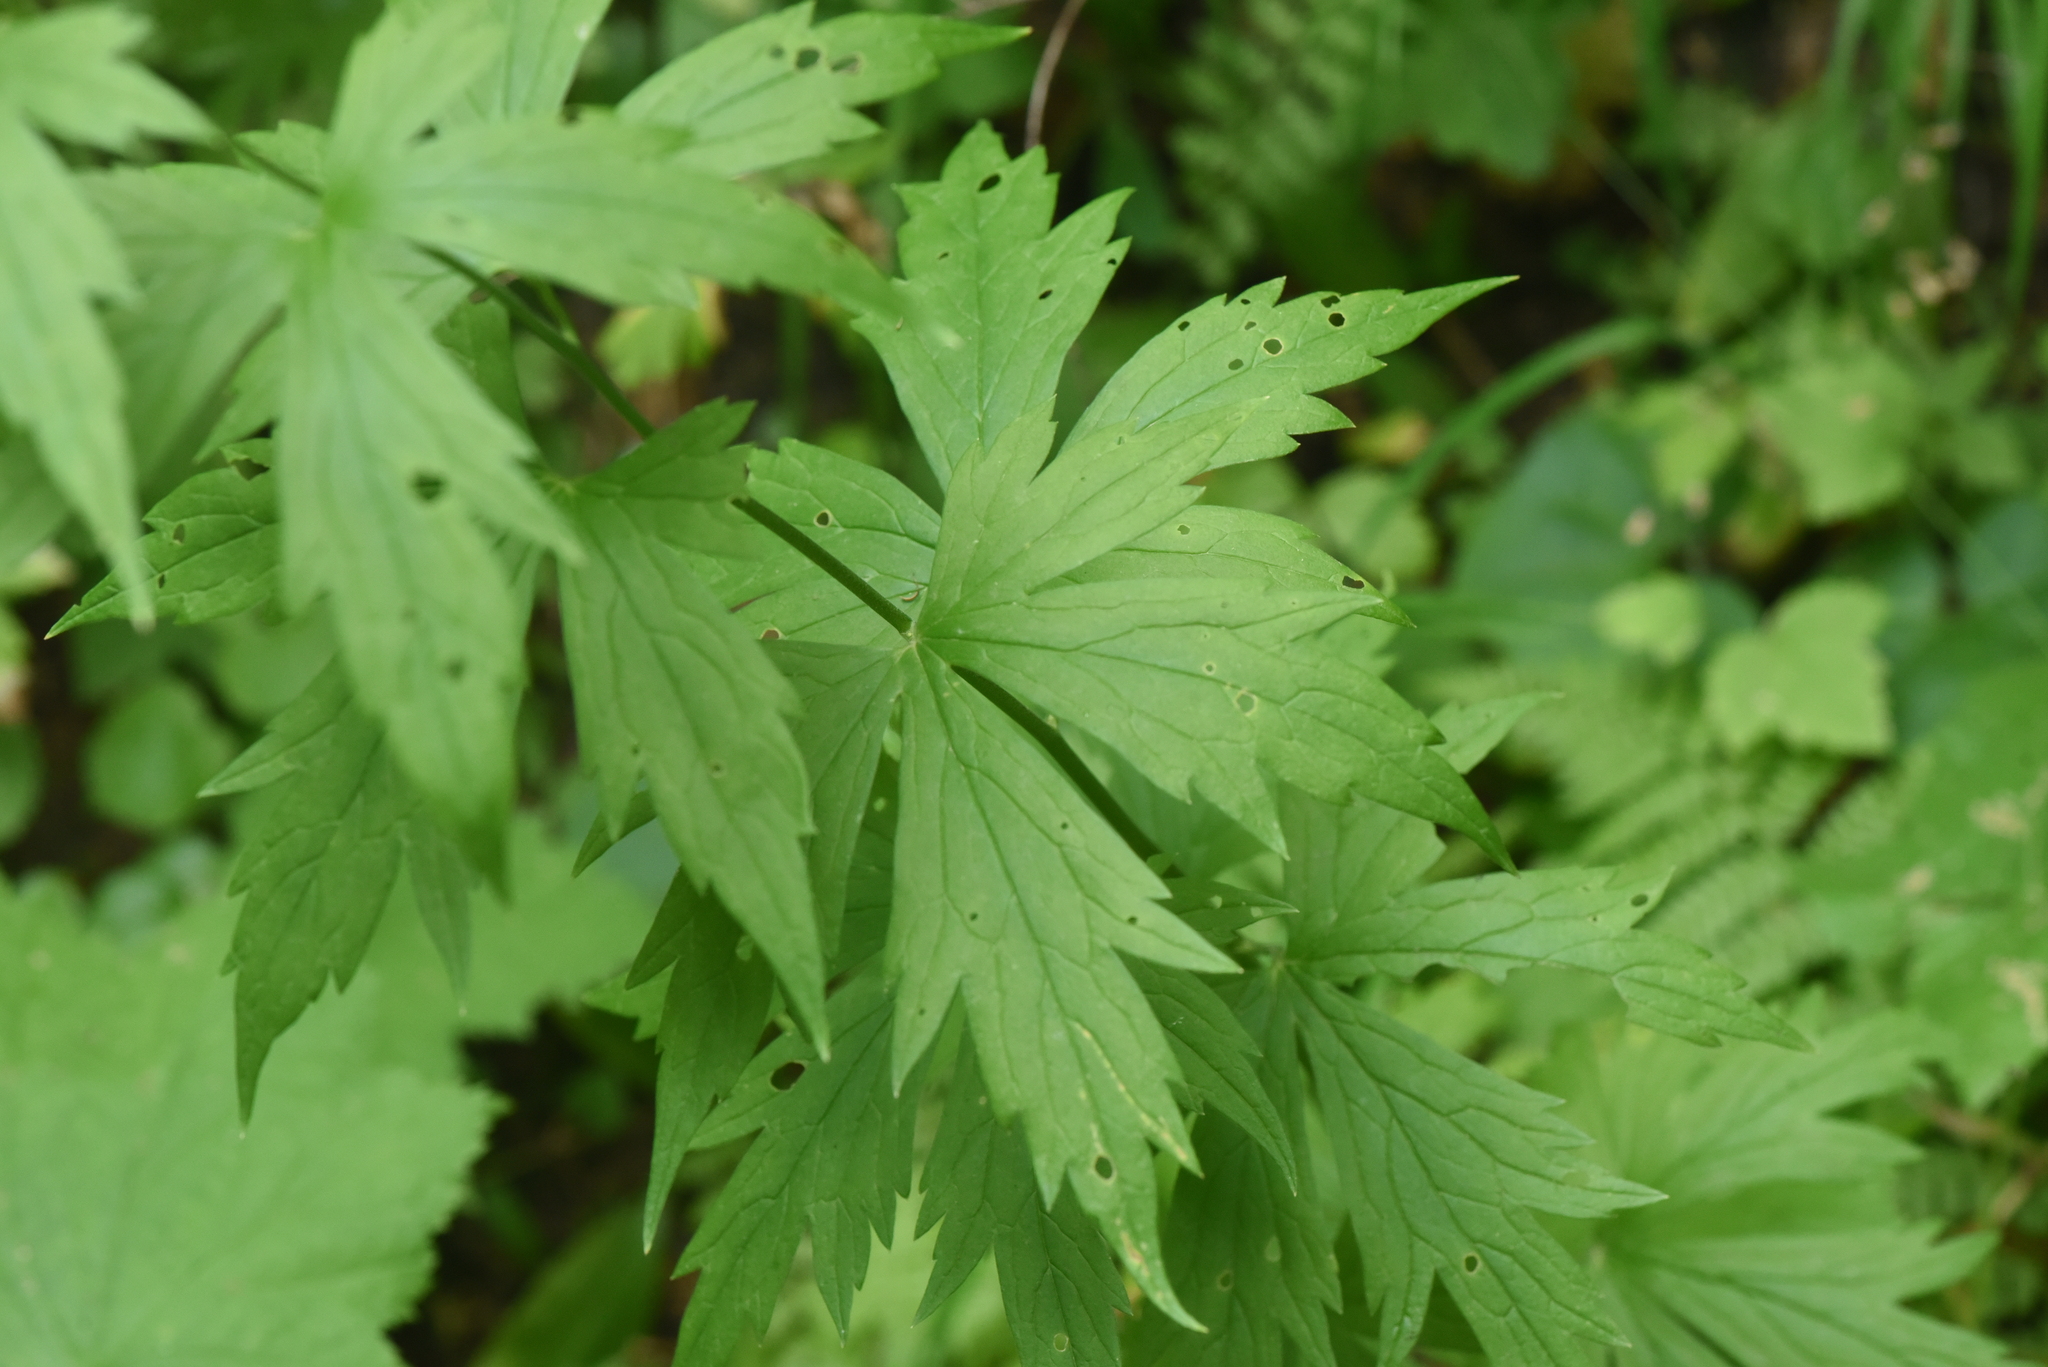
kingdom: Plantae
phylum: Tracheophyta
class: Magnoliopsida
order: Ranunculales
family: Ranunculaceae
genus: Aconitum
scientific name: Aconitum columbianum
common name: Columbia aconite
